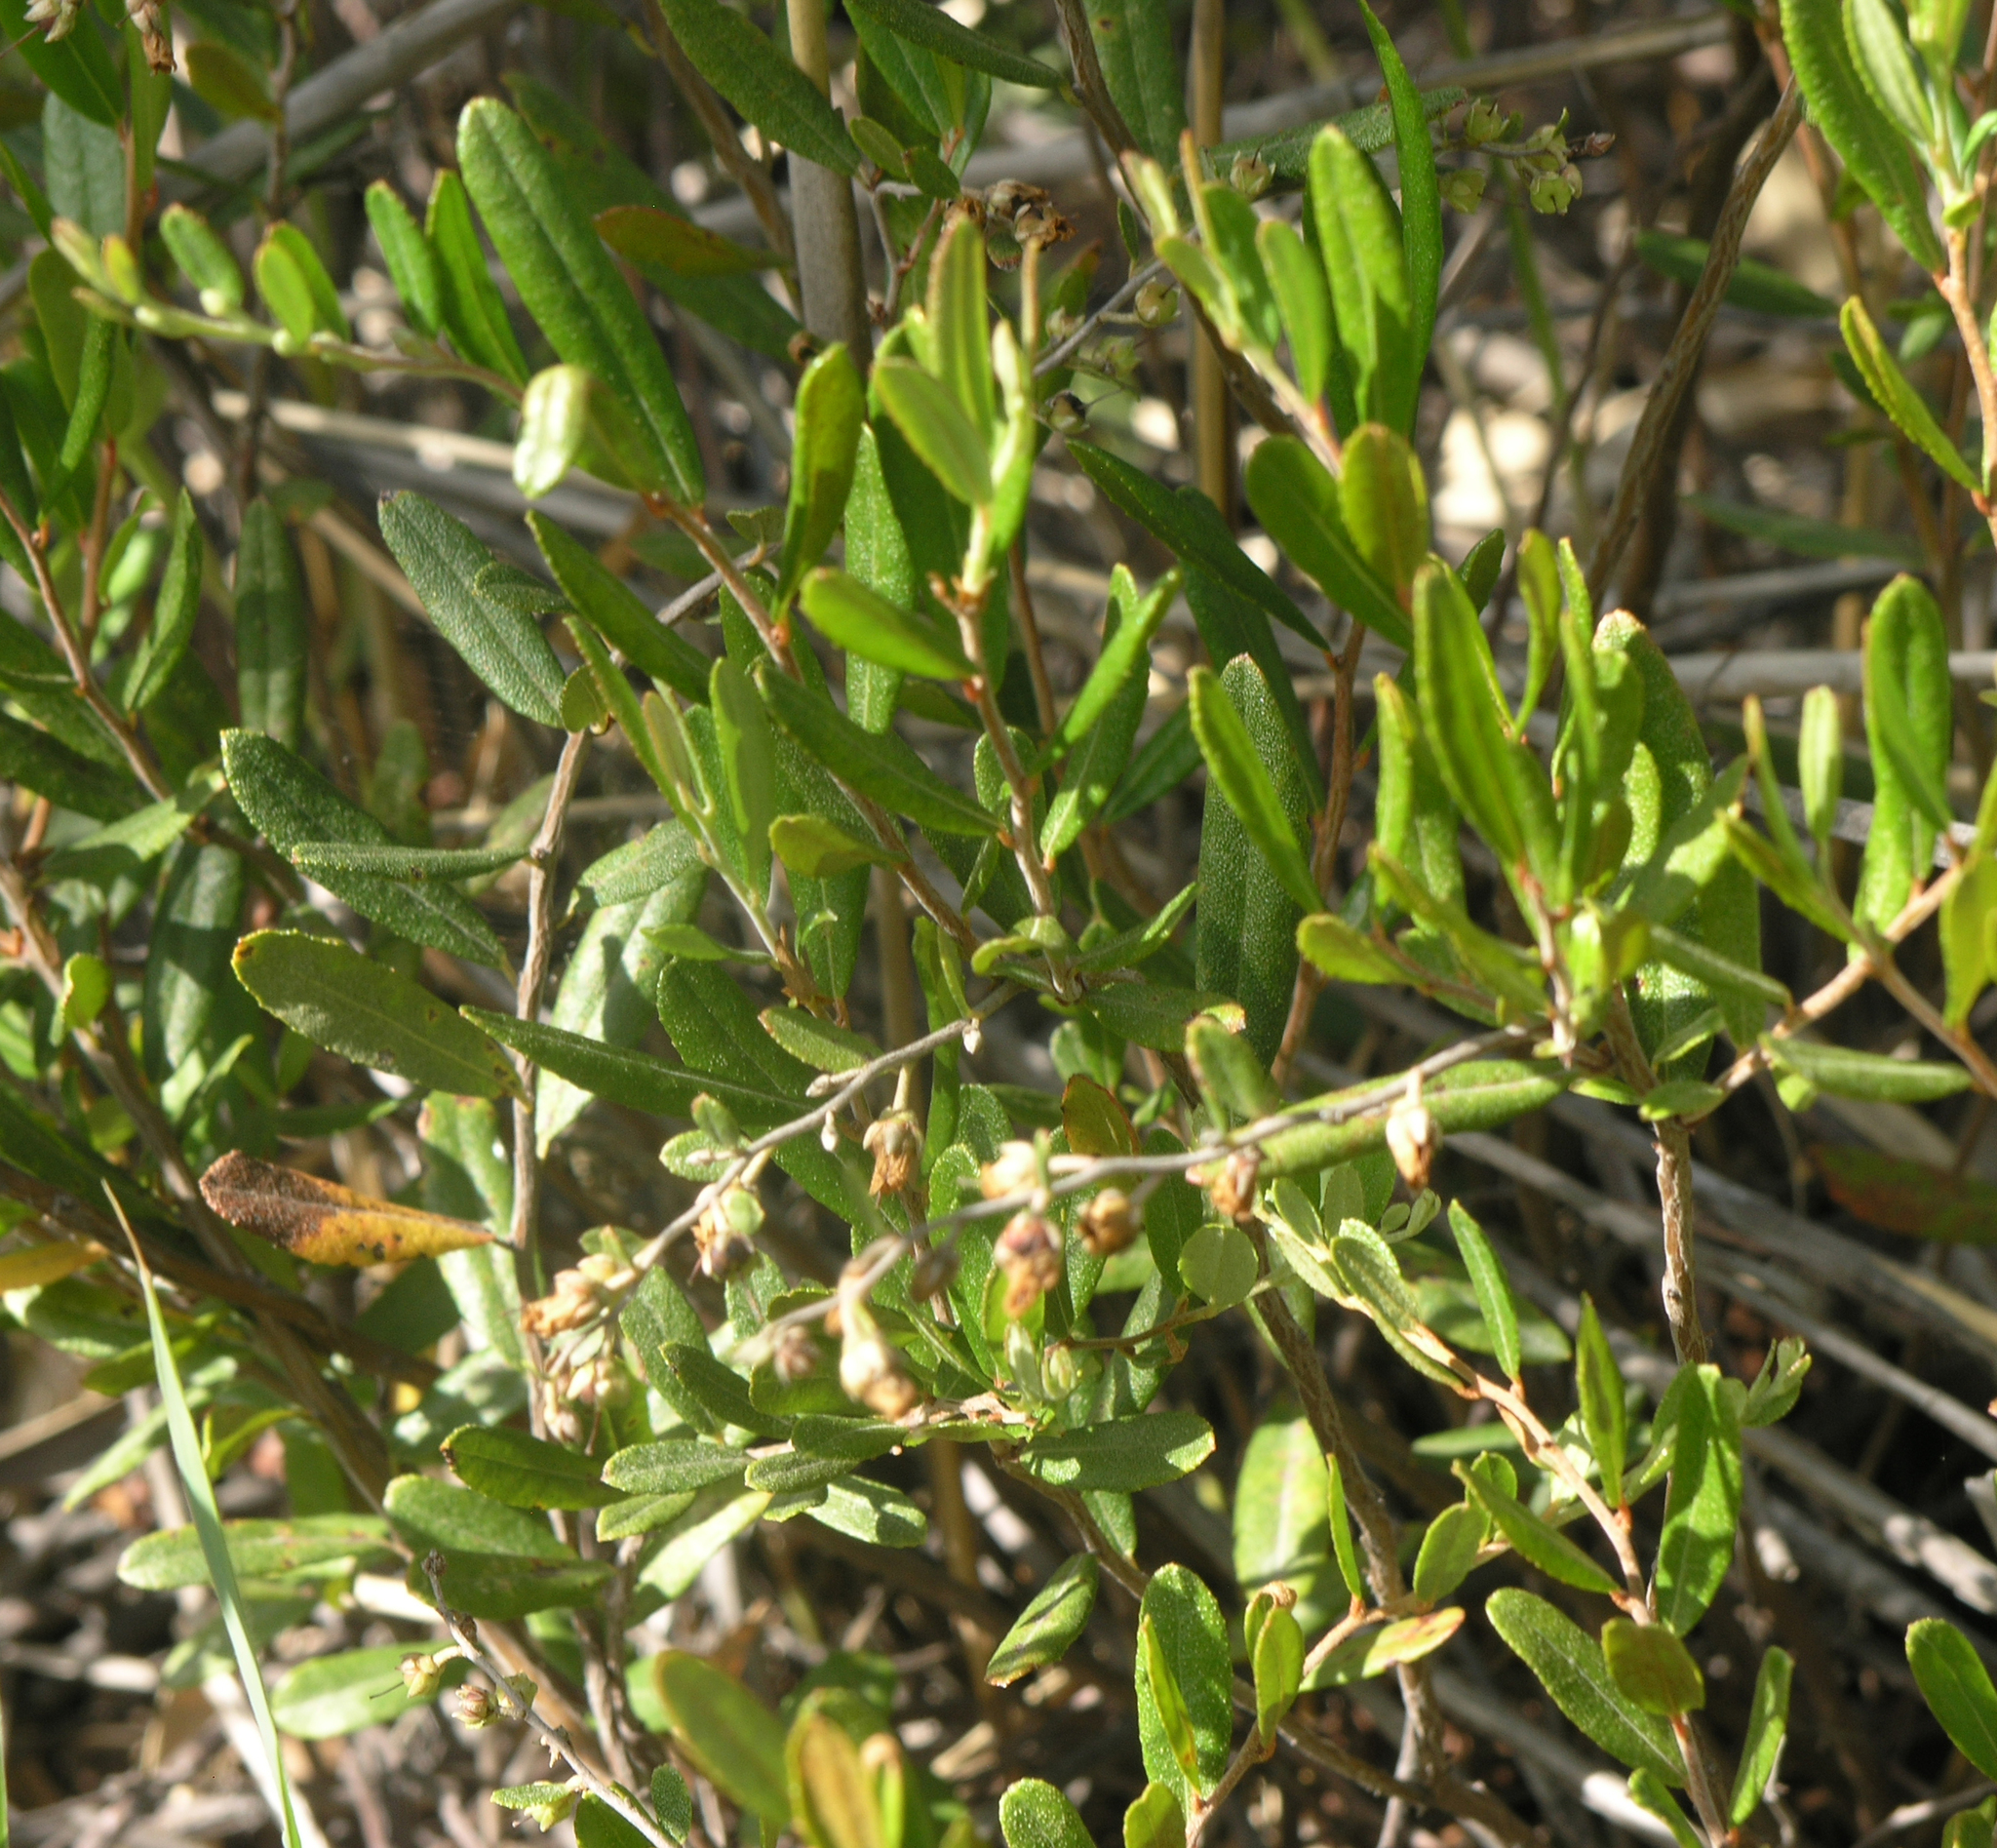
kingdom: Plantae
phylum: Tracheophyta
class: Magnoliopsida
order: Ericales
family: Ericaceae
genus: Chamaedaphne
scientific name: Chamaedaphne calyculata
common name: Leatherleaf
